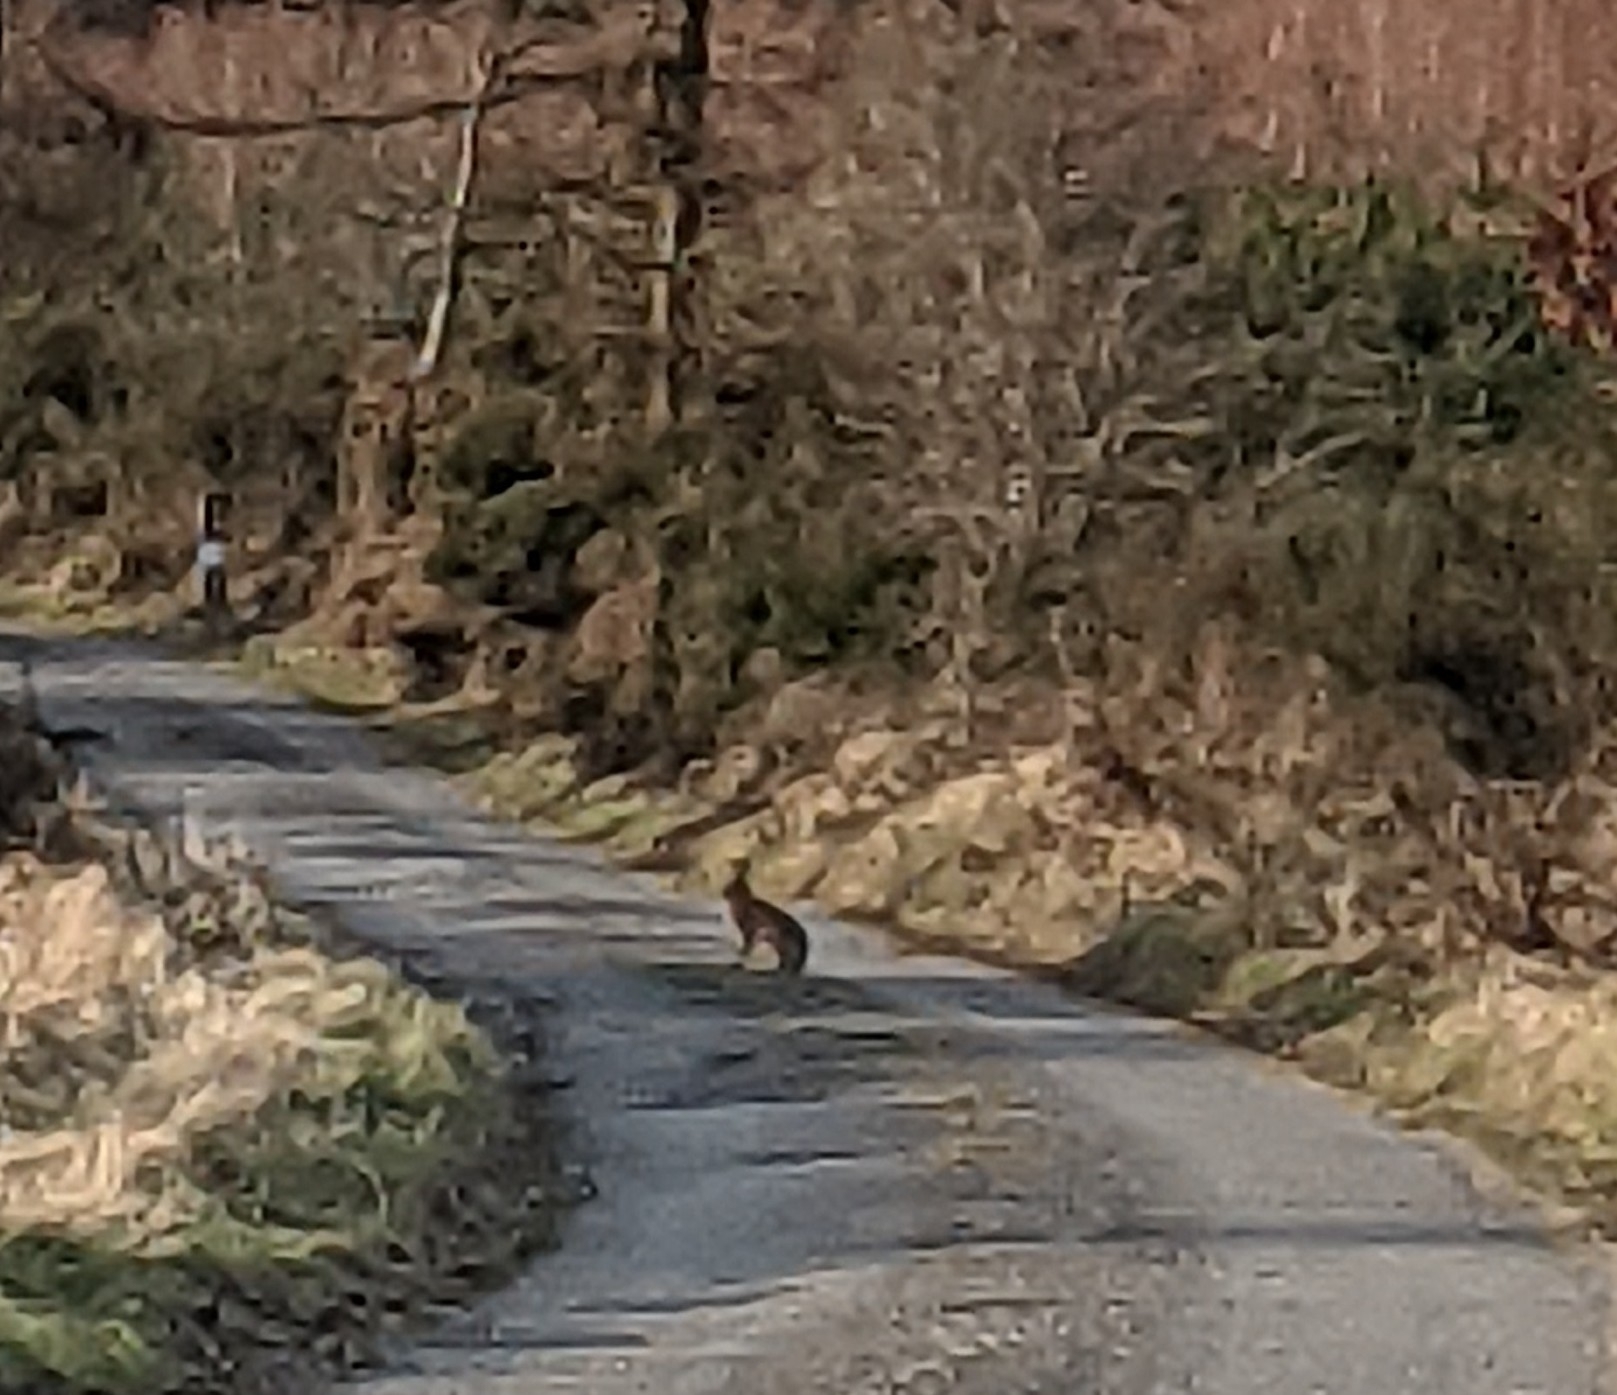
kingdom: Animalia
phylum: Chordata
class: Mammalia
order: Lagomorpha
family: Leporidae
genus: Lepus
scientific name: Lepus europaeus
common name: European hare
